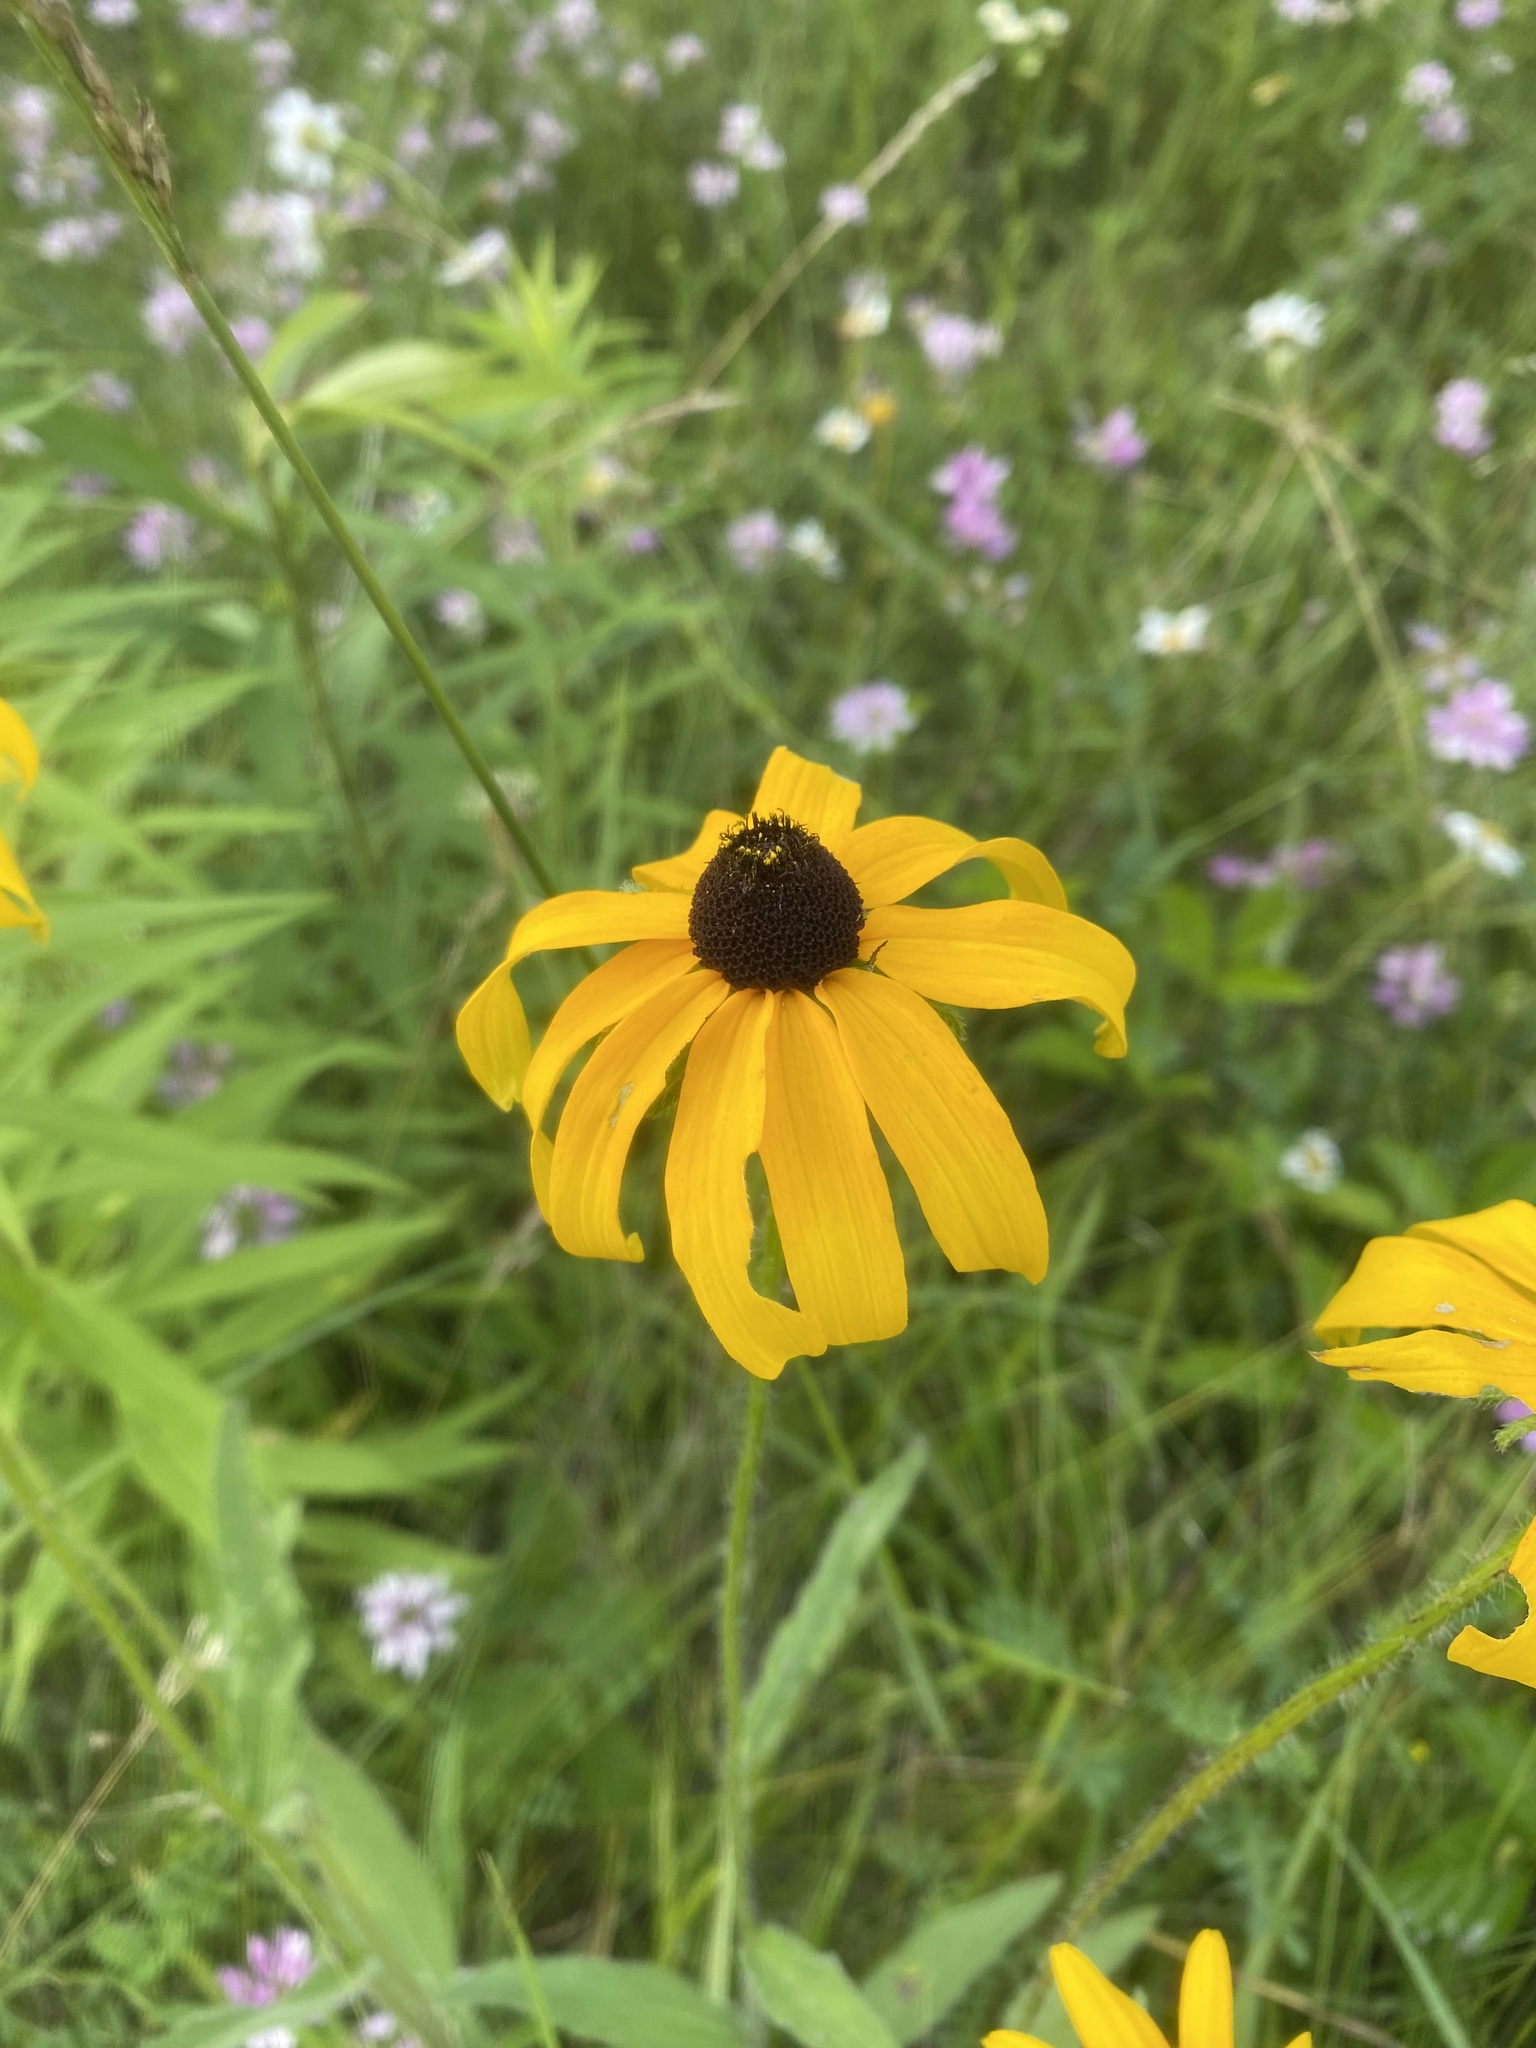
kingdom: Plantae
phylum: Tracheophyta
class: Magnoliopsida
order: Asterales
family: Asteraceae
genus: Rudbeckia
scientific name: Rudbeckia hirta
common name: Black-eyed-susan
